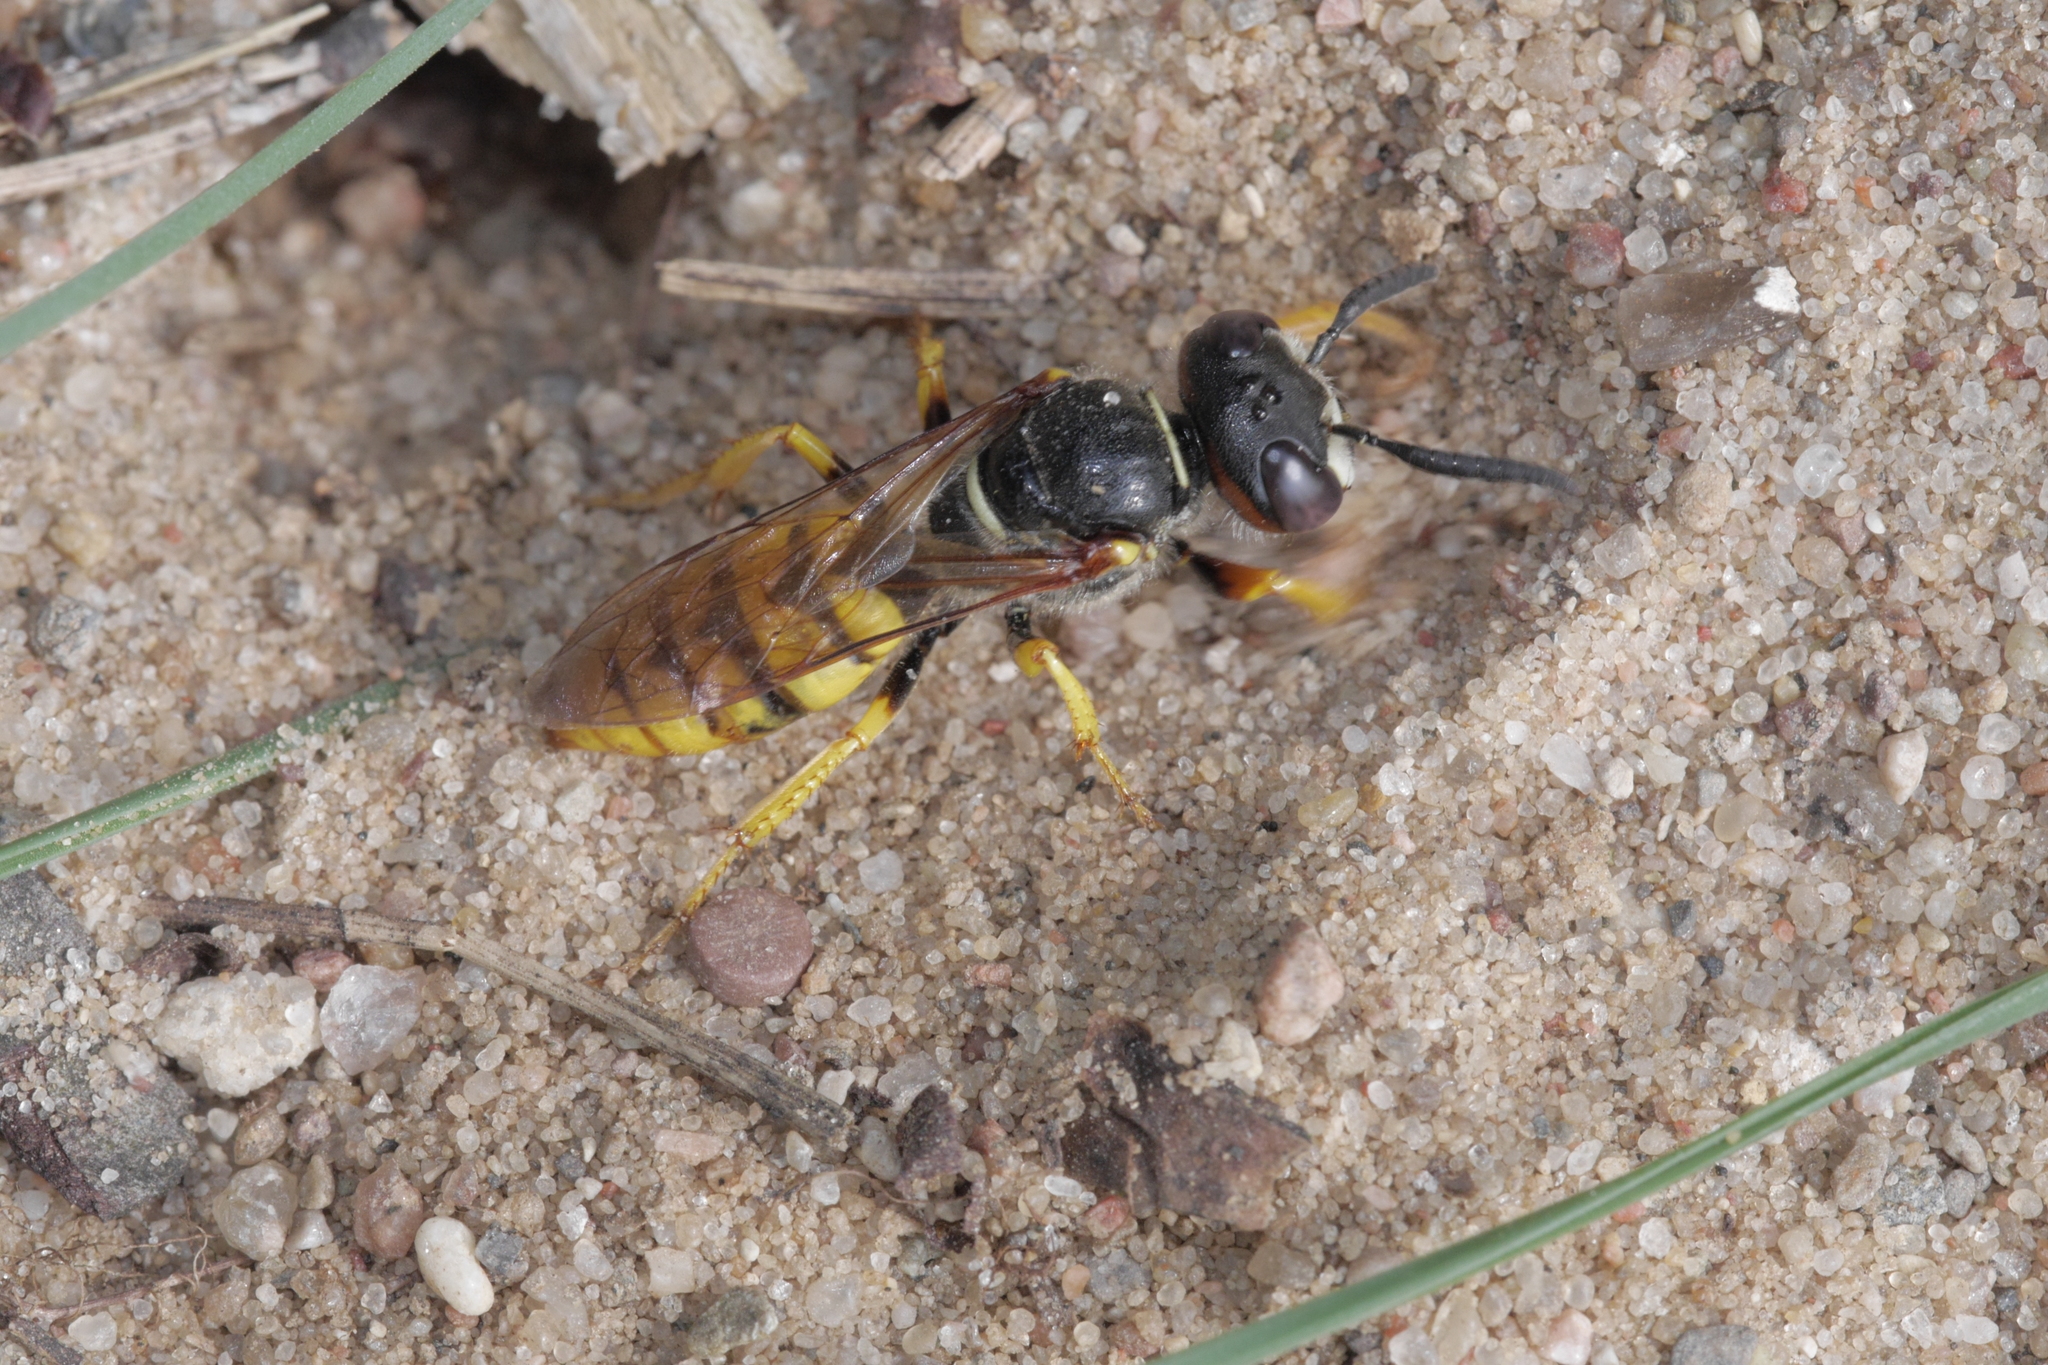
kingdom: Animalia
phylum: Arthropoda
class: Insecta
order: Hymenoptera
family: Crabronidae
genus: Philanthus
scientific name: Philanthus triangulum
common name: Bee wolf
